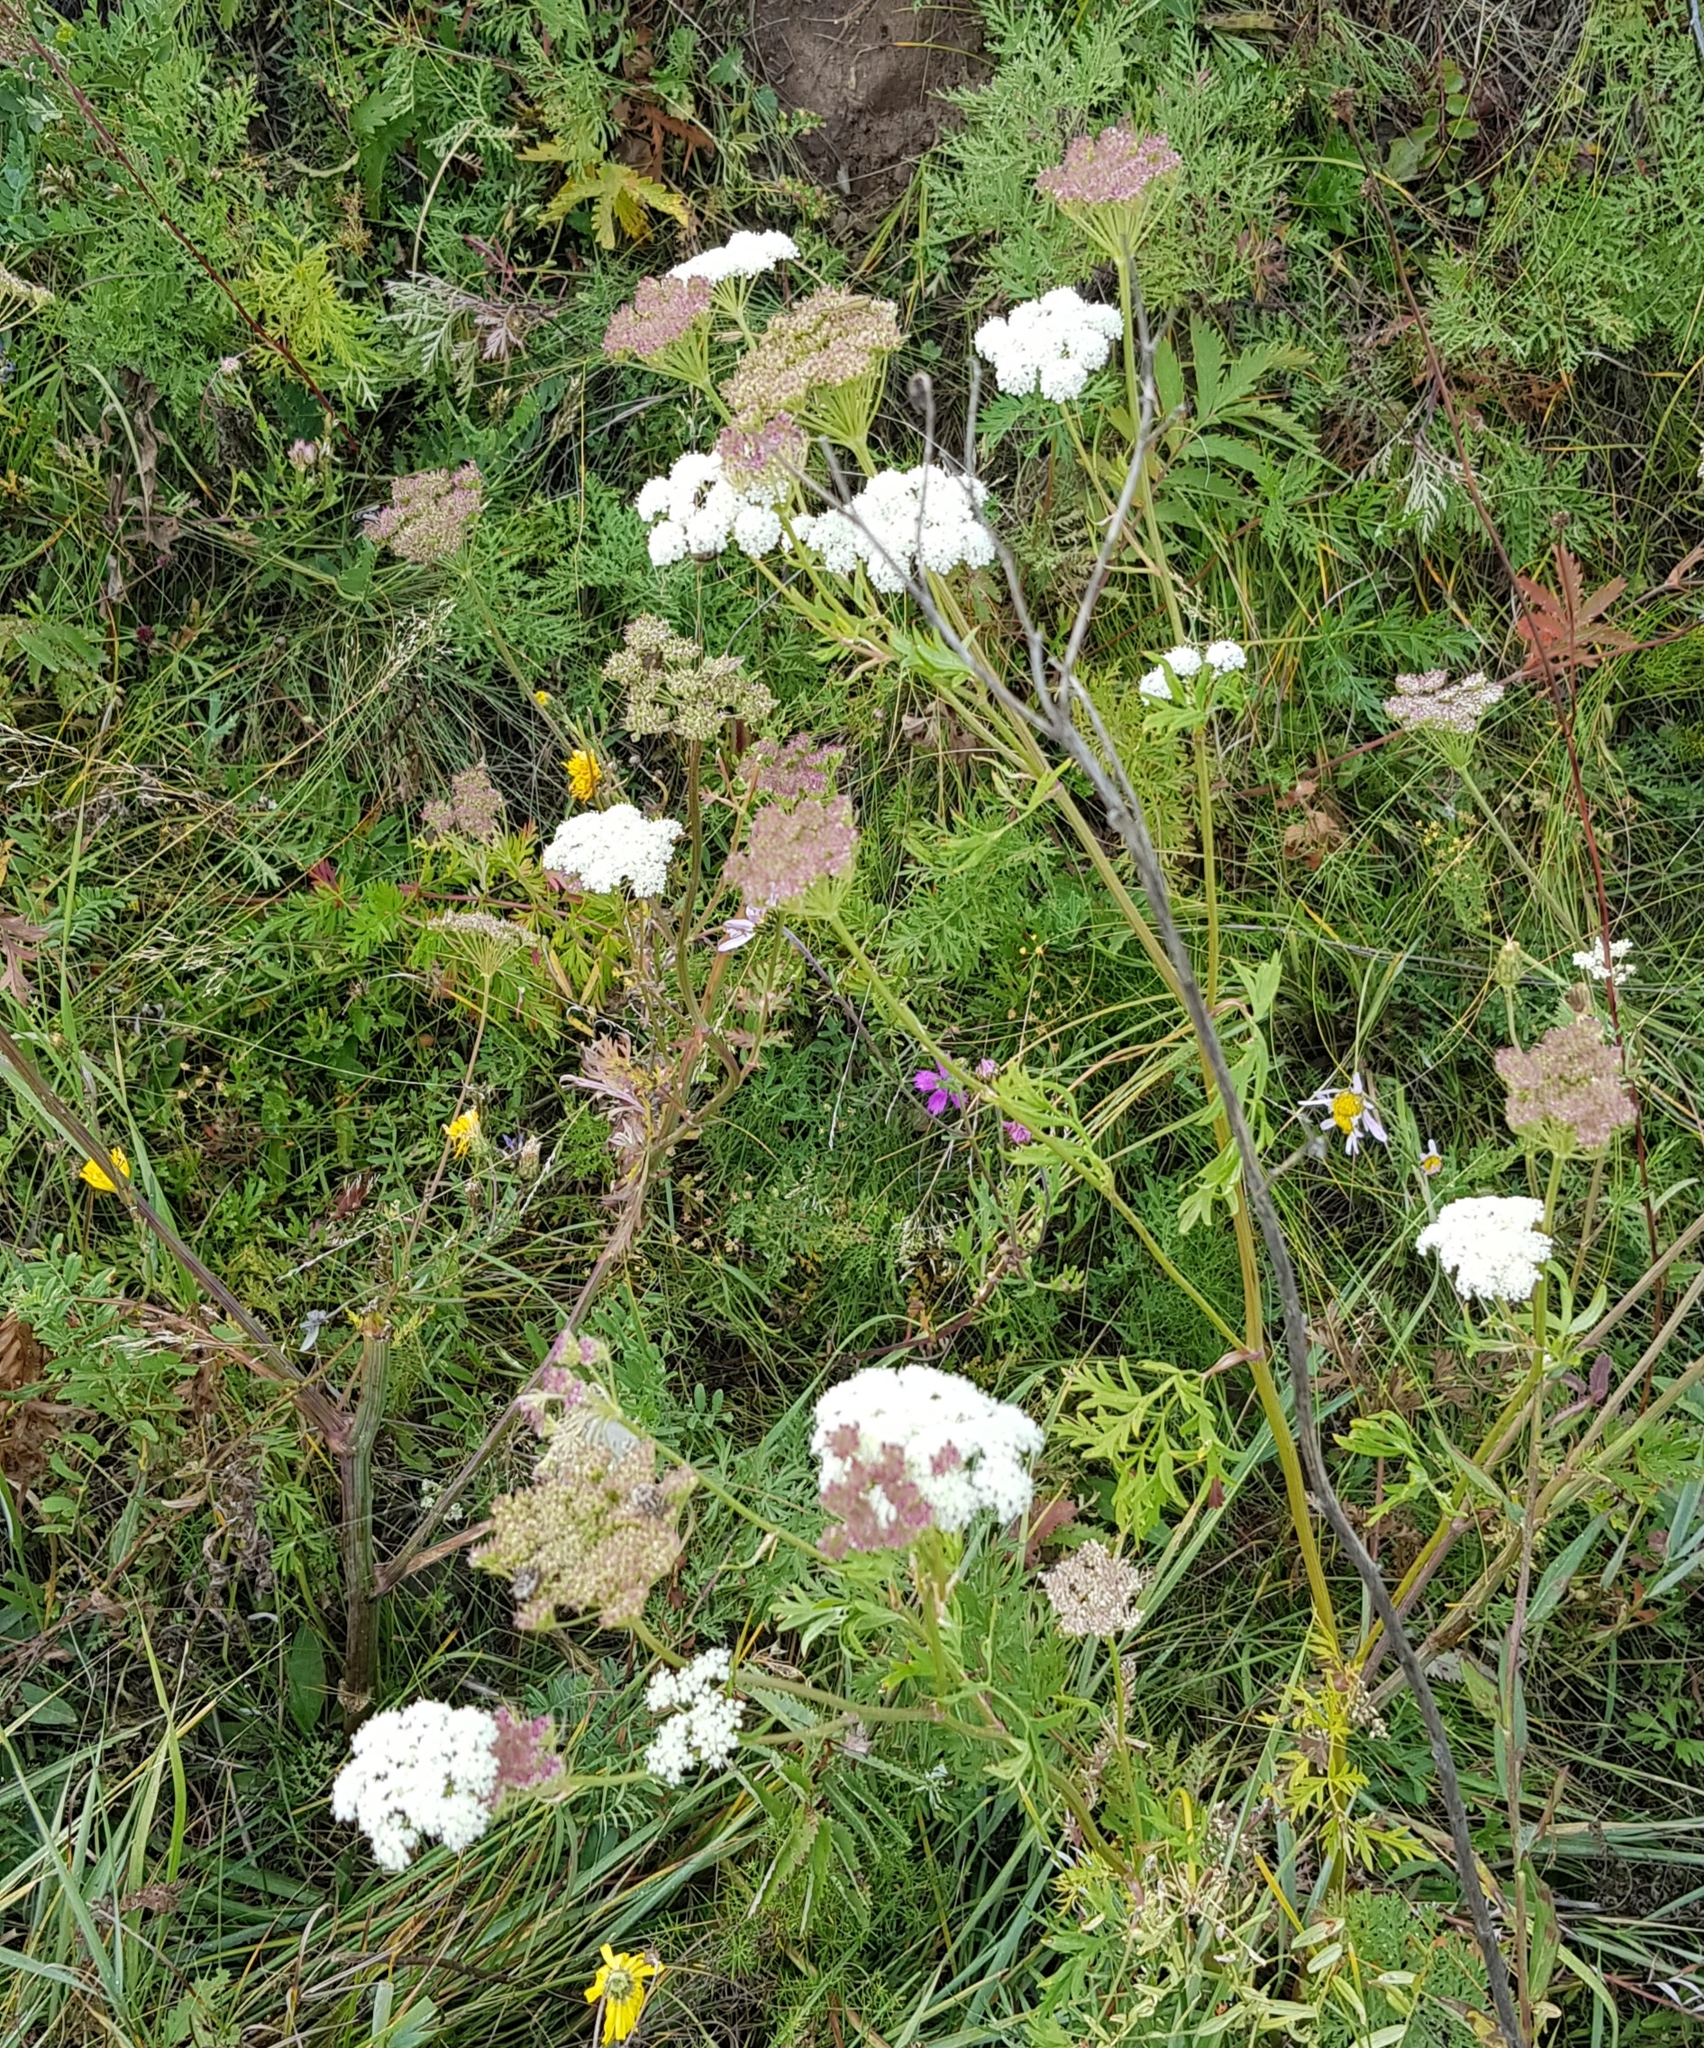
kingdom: Plantae
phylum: Tracheophyta
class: Magnoliopsida
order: Apiales
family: Apiaceae
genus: Kitagawia
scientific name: Kitagawia terebinthacea
